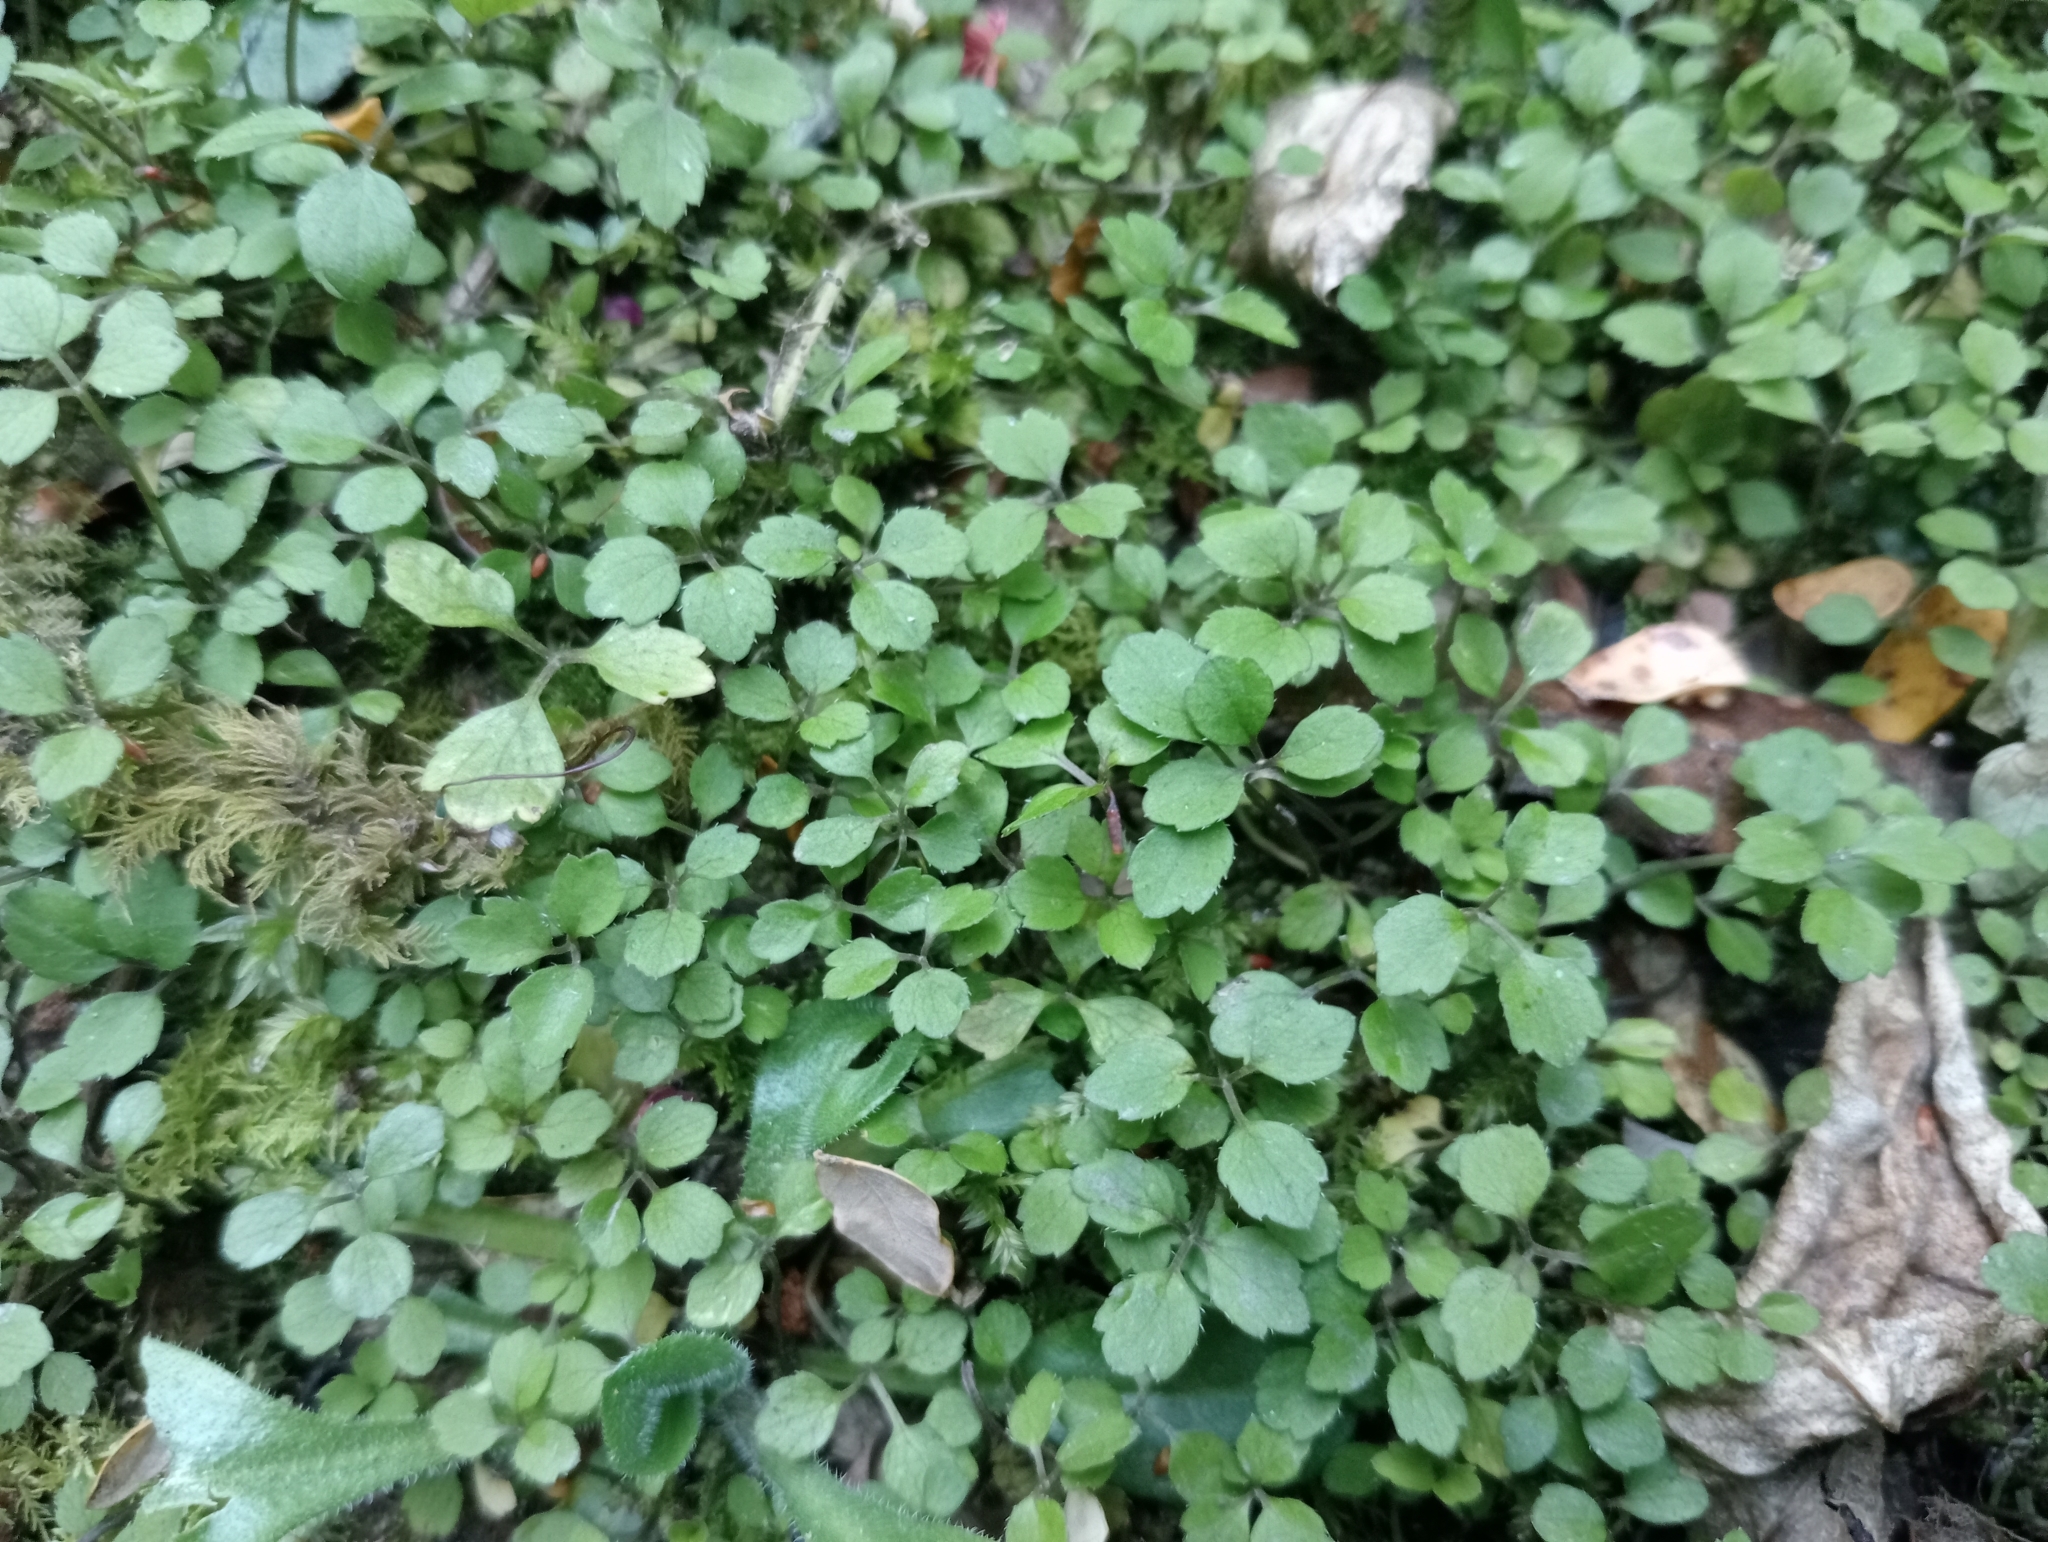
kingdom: Plantae
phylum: Tracheophyta
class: Magnoliopsida
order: Apiales
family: Apiaceae
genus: Azorella
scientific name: Azorella hookeri
